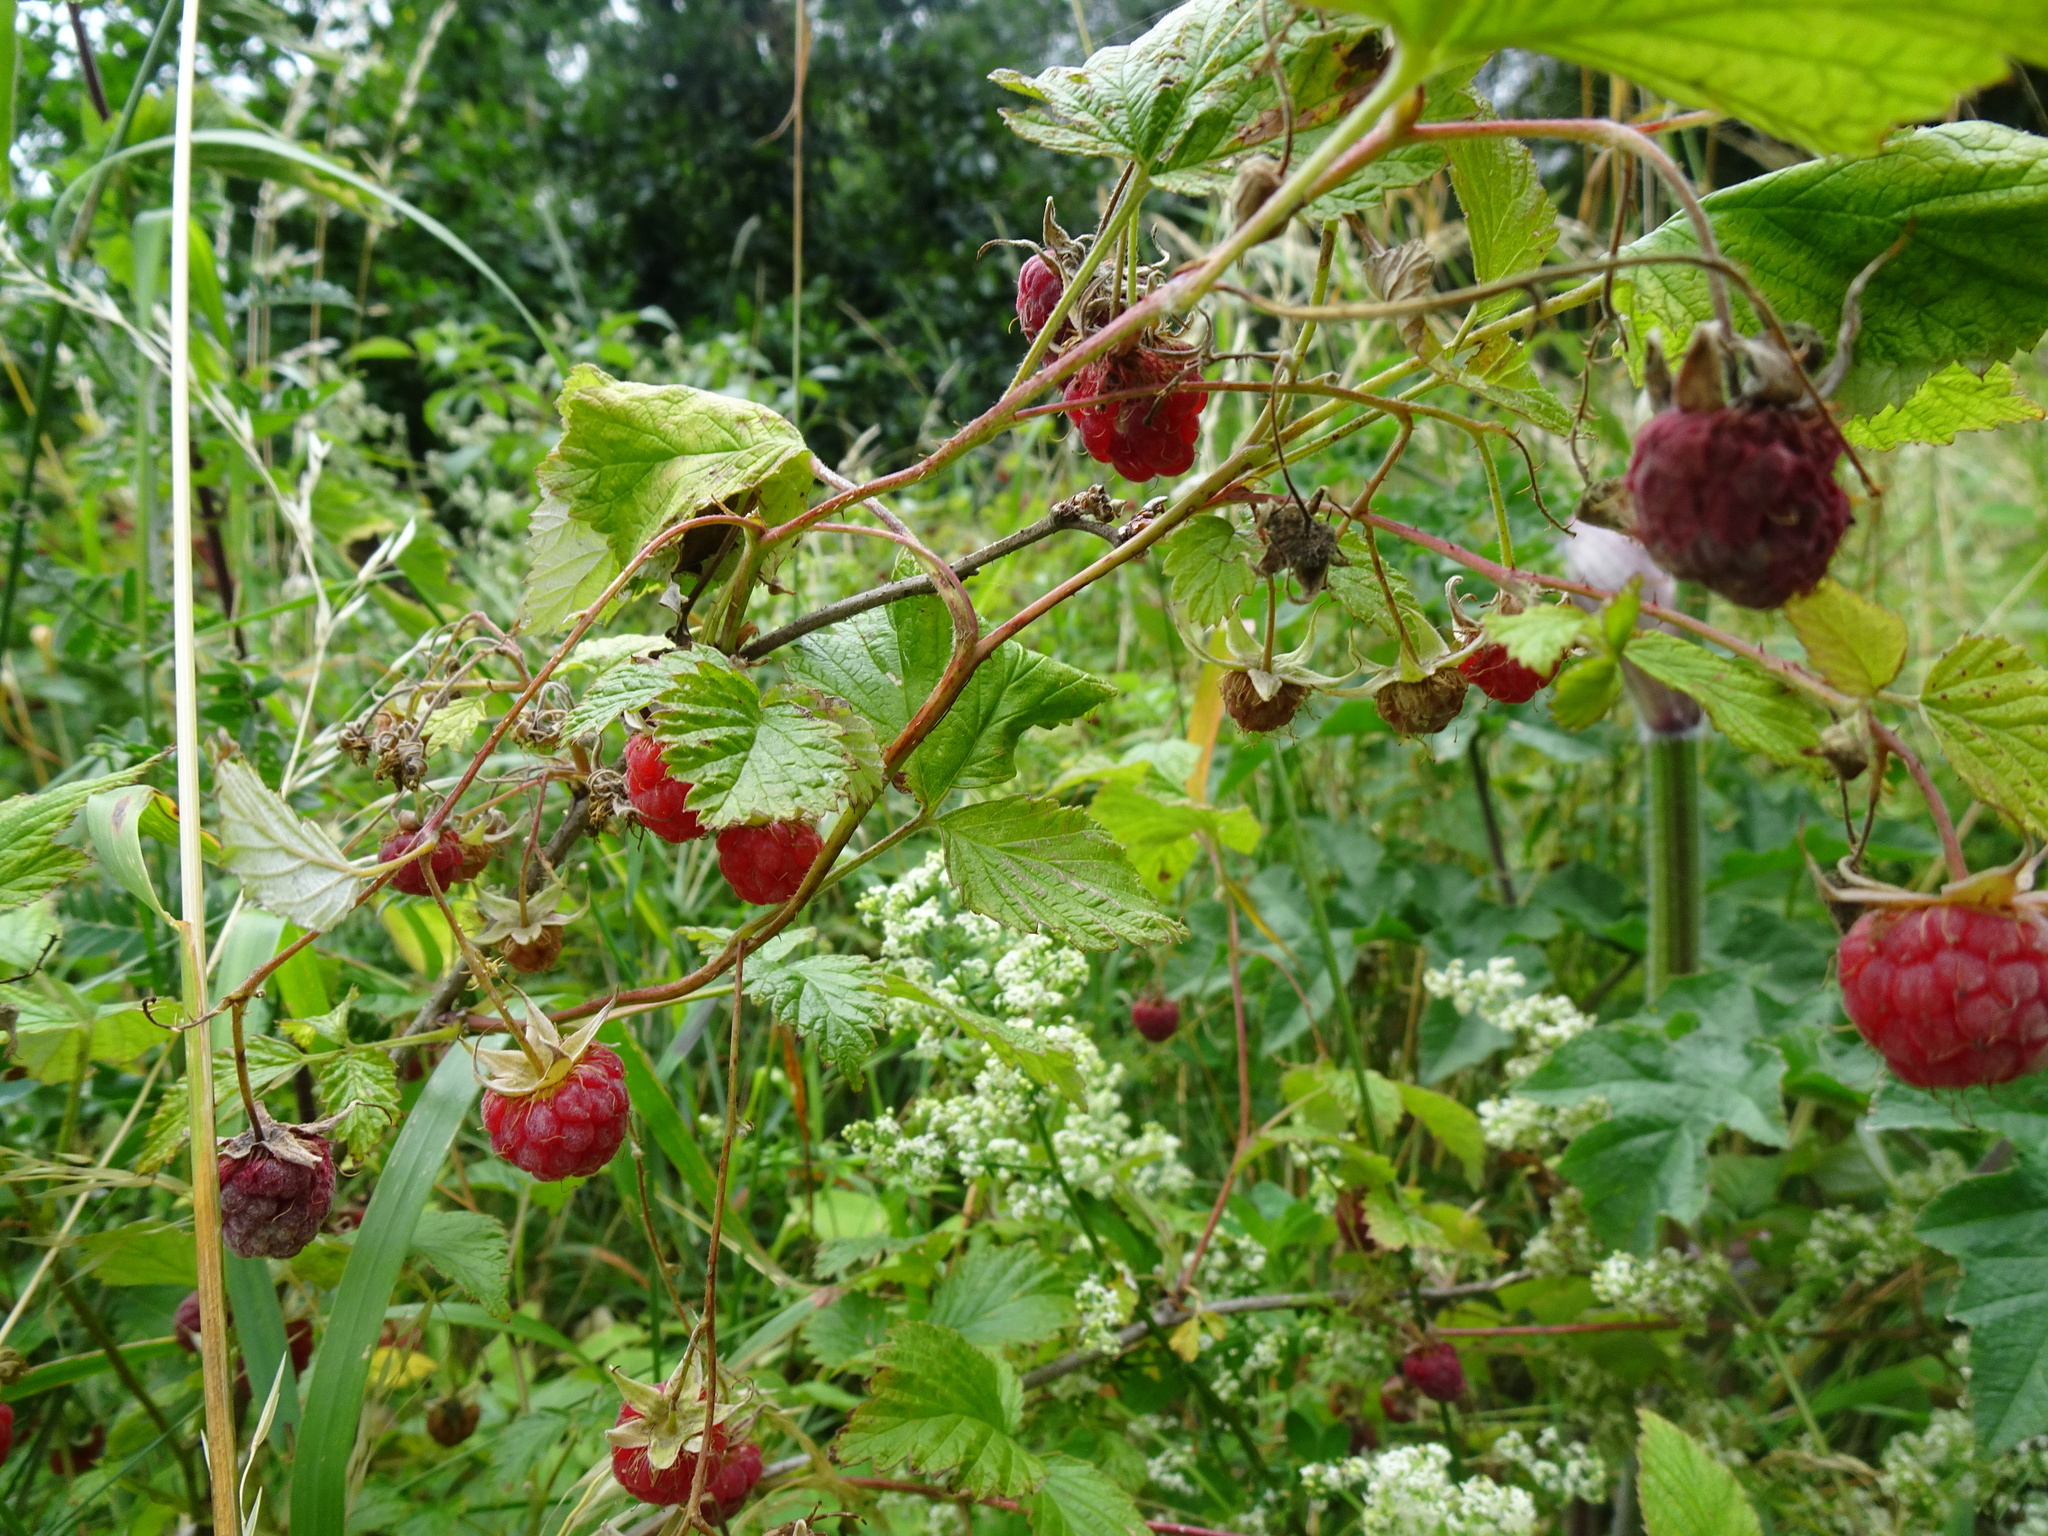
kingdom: Plantae
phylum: Tracheophyta
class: Magnoliopsida
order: Rosales
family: Rosaceae
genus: Rubus
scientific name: Rubus idaeus
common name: Raspberry
